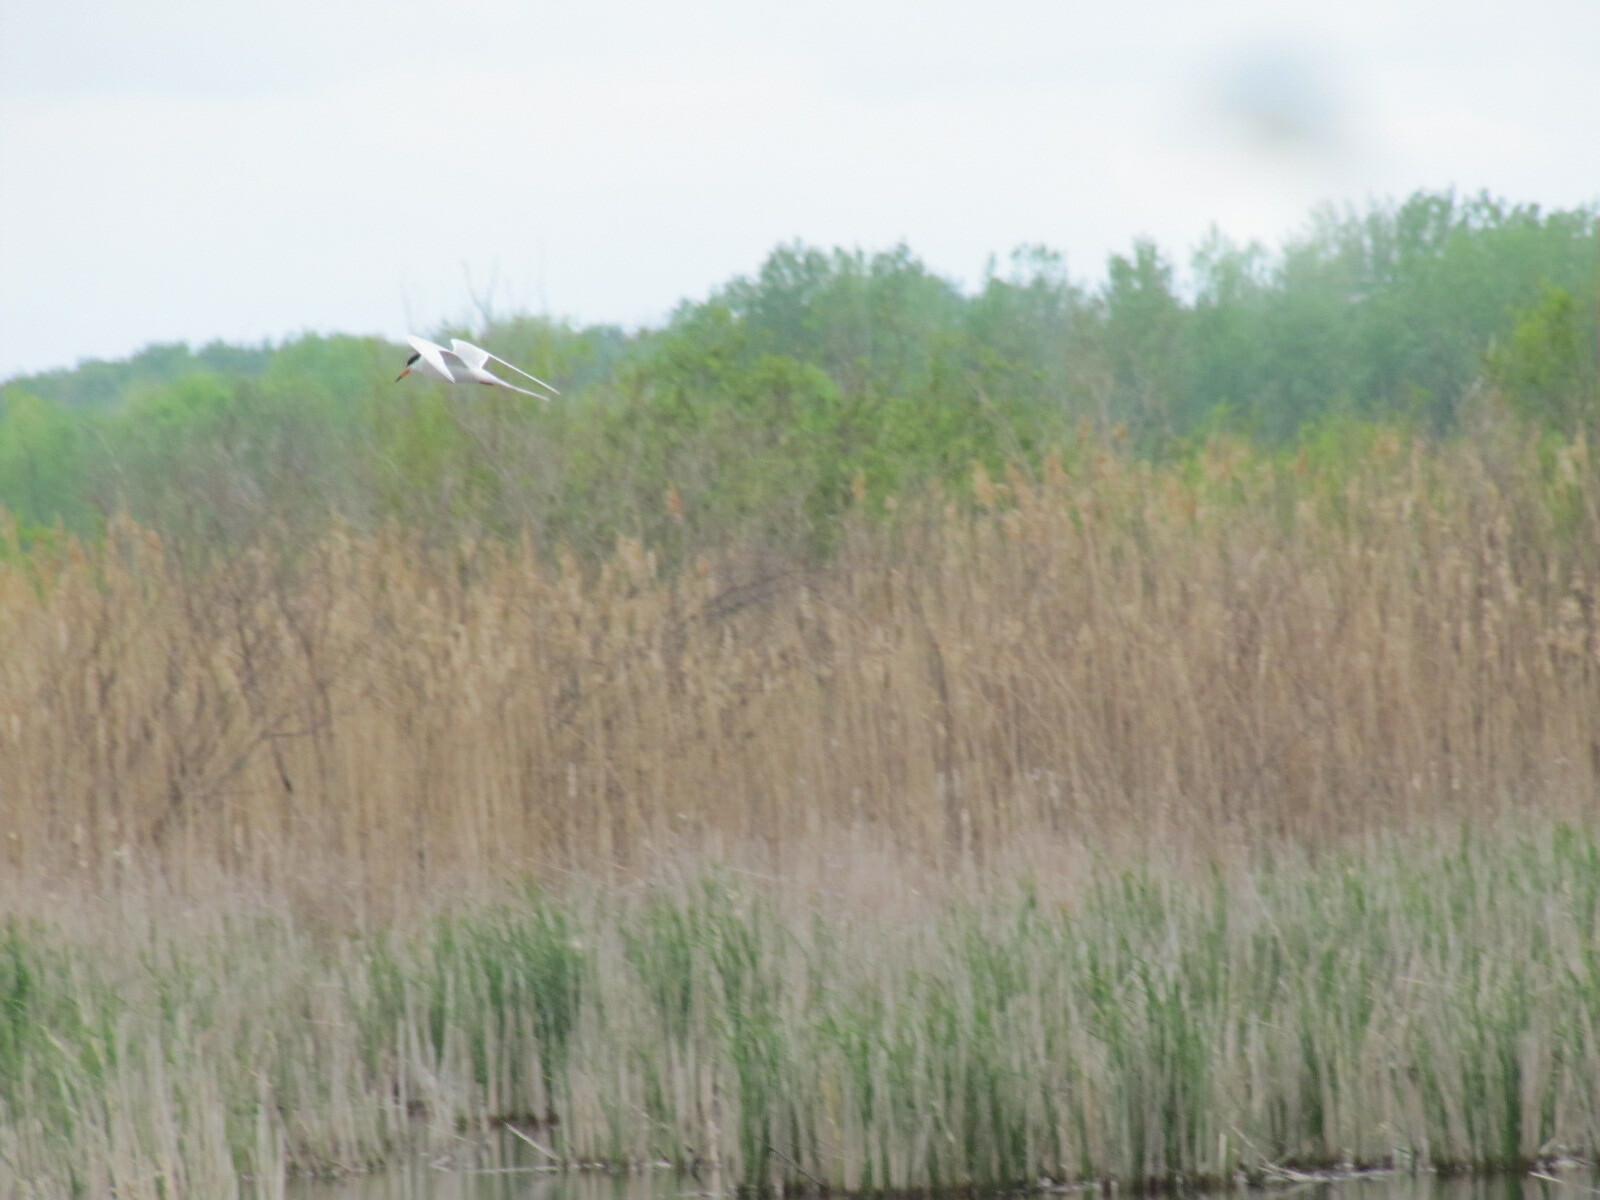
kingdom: Animalia
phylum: Chordata
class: Aves
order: Charadriiformes
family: Laridae
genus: Sterna
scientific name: Sterna forsteri
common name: Forster's tern
